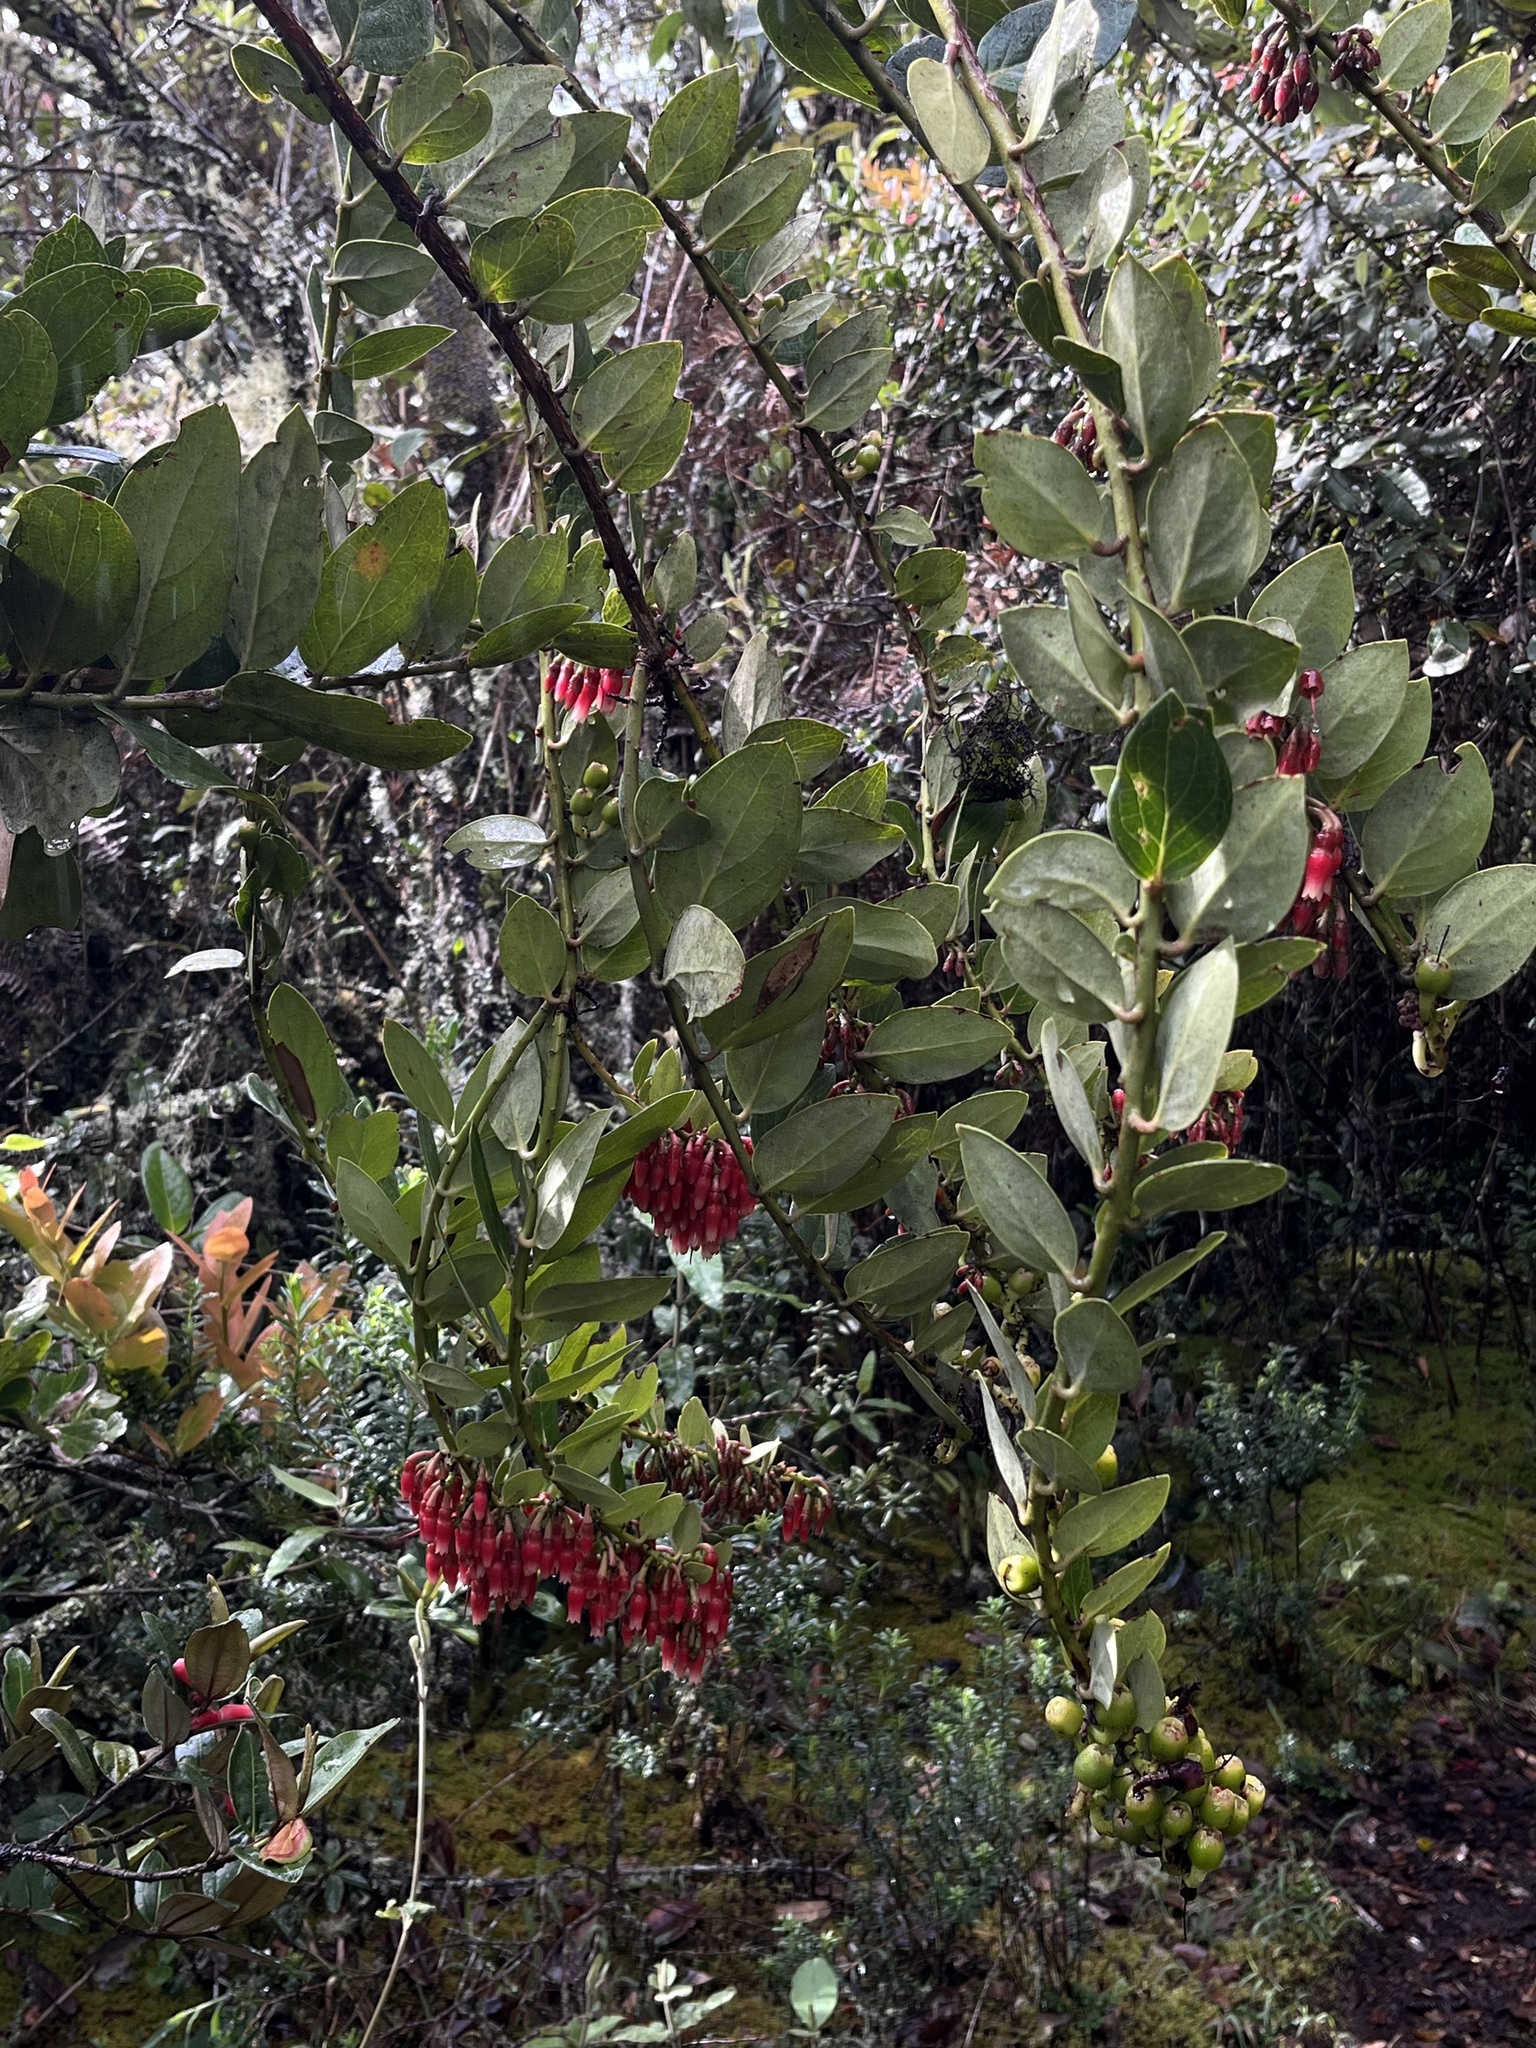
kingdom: Plantae
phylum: Tracheophyta
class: Magnoliopsida
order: Ericales
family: Ericaceae
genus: Macleania
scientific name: Macleania rupestris
